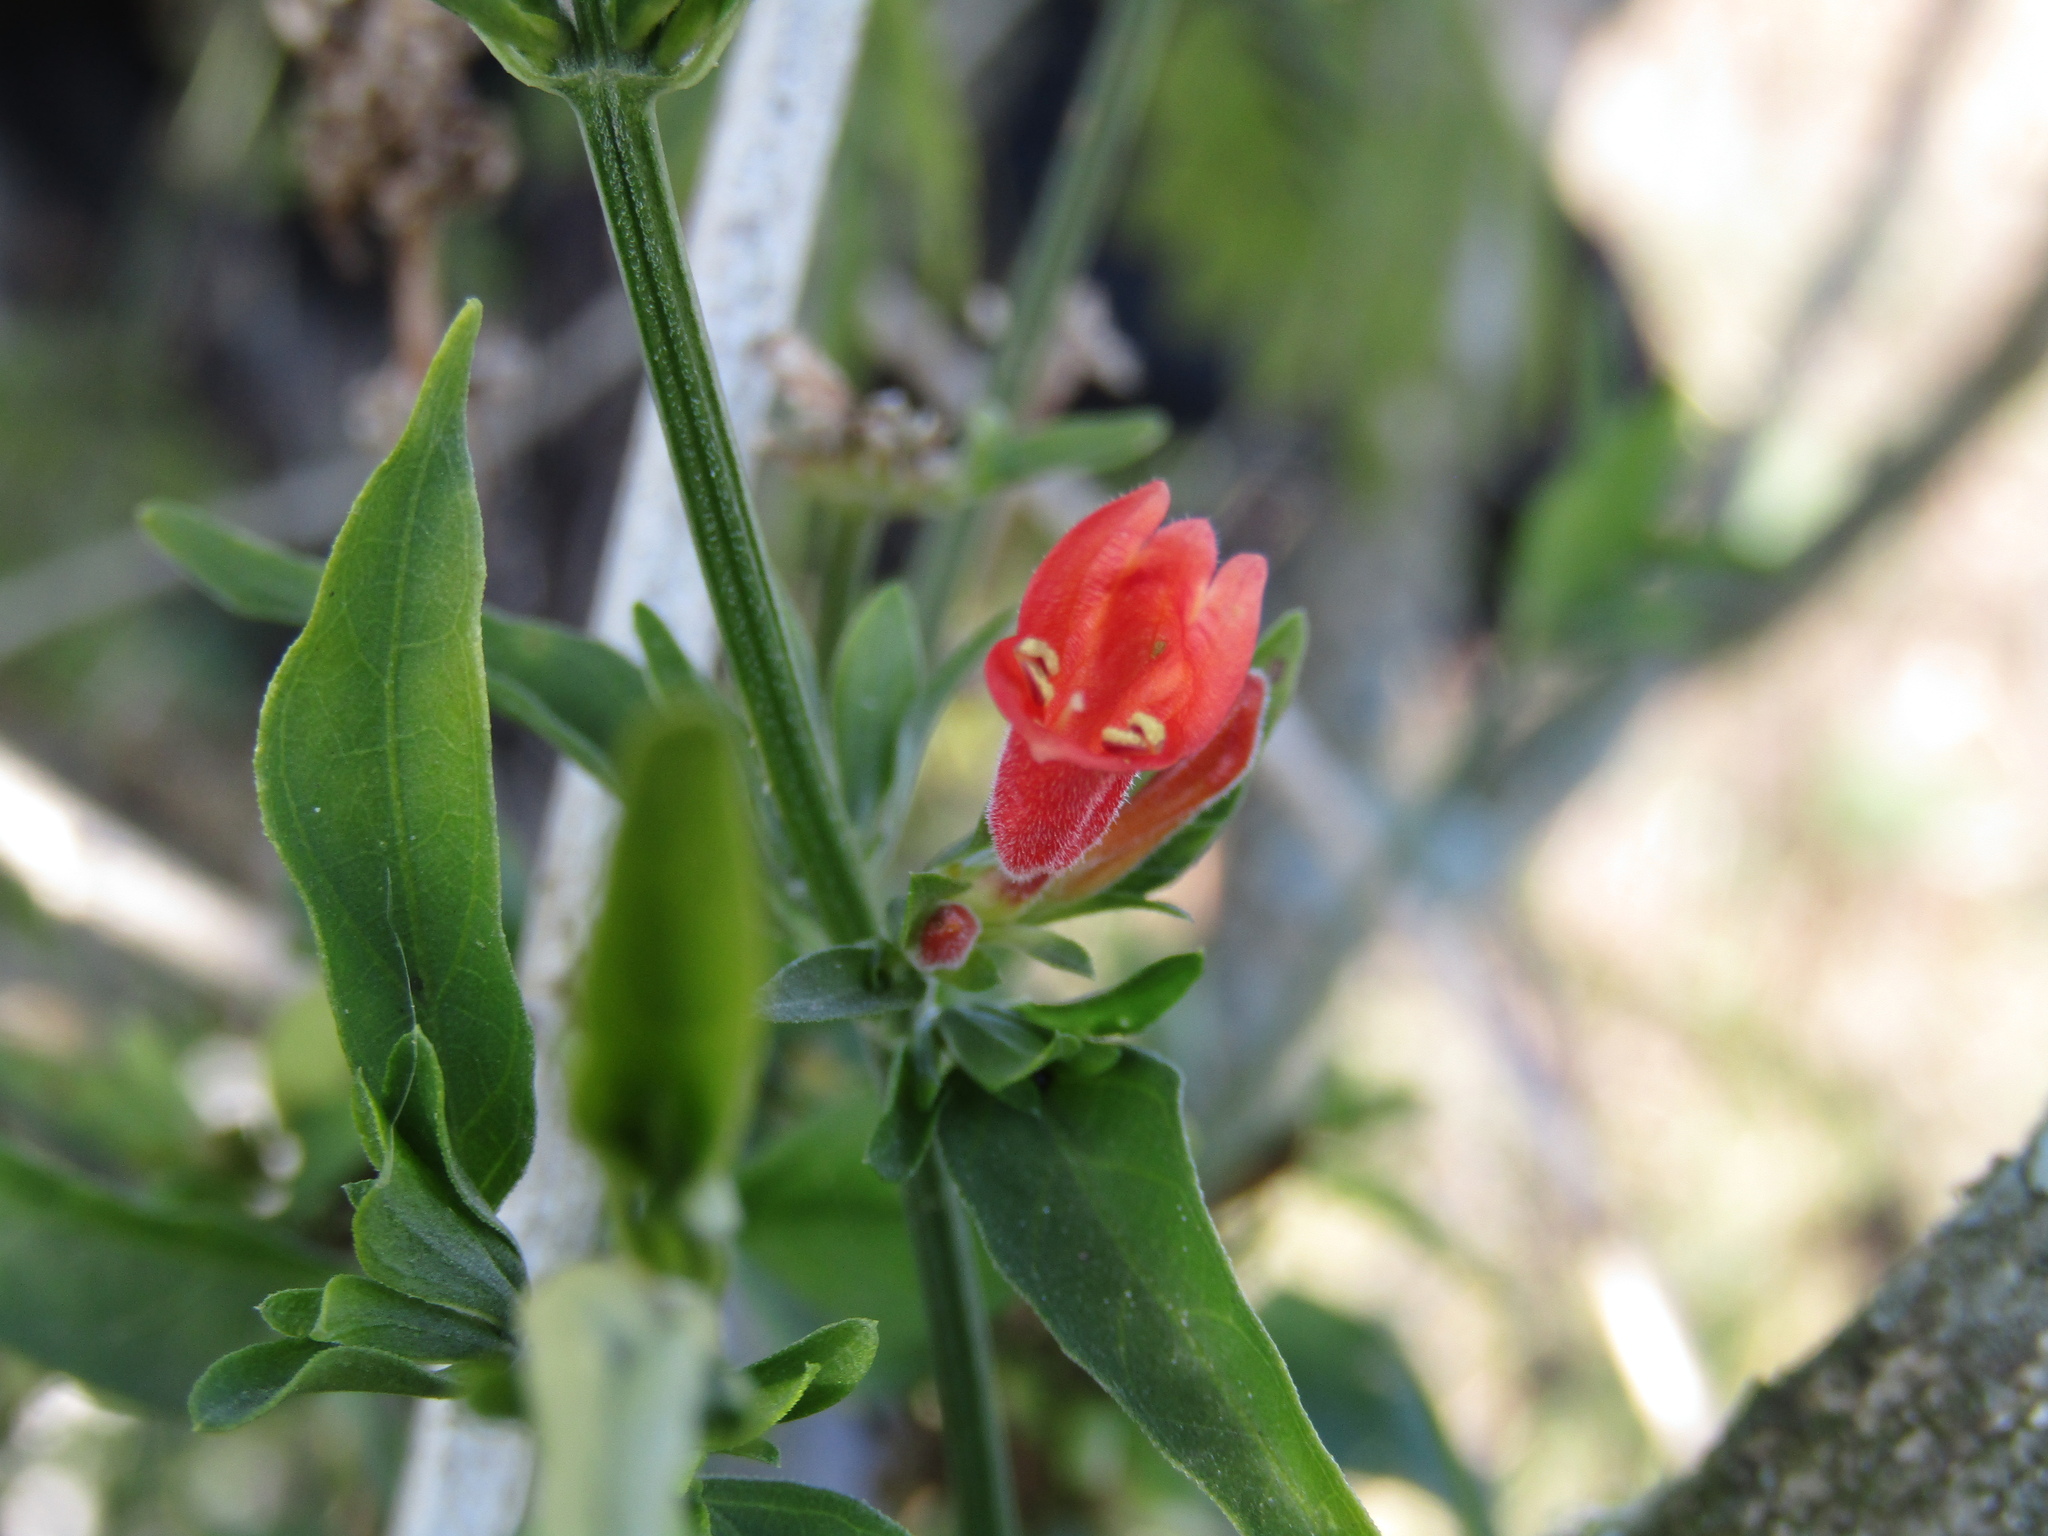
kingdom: Plantae
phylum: Tracheophyta
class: Magnoliopsida
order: Lamiales
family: Acanthaceae
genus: Dicliptera
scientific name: Dicliptera squarrosa
